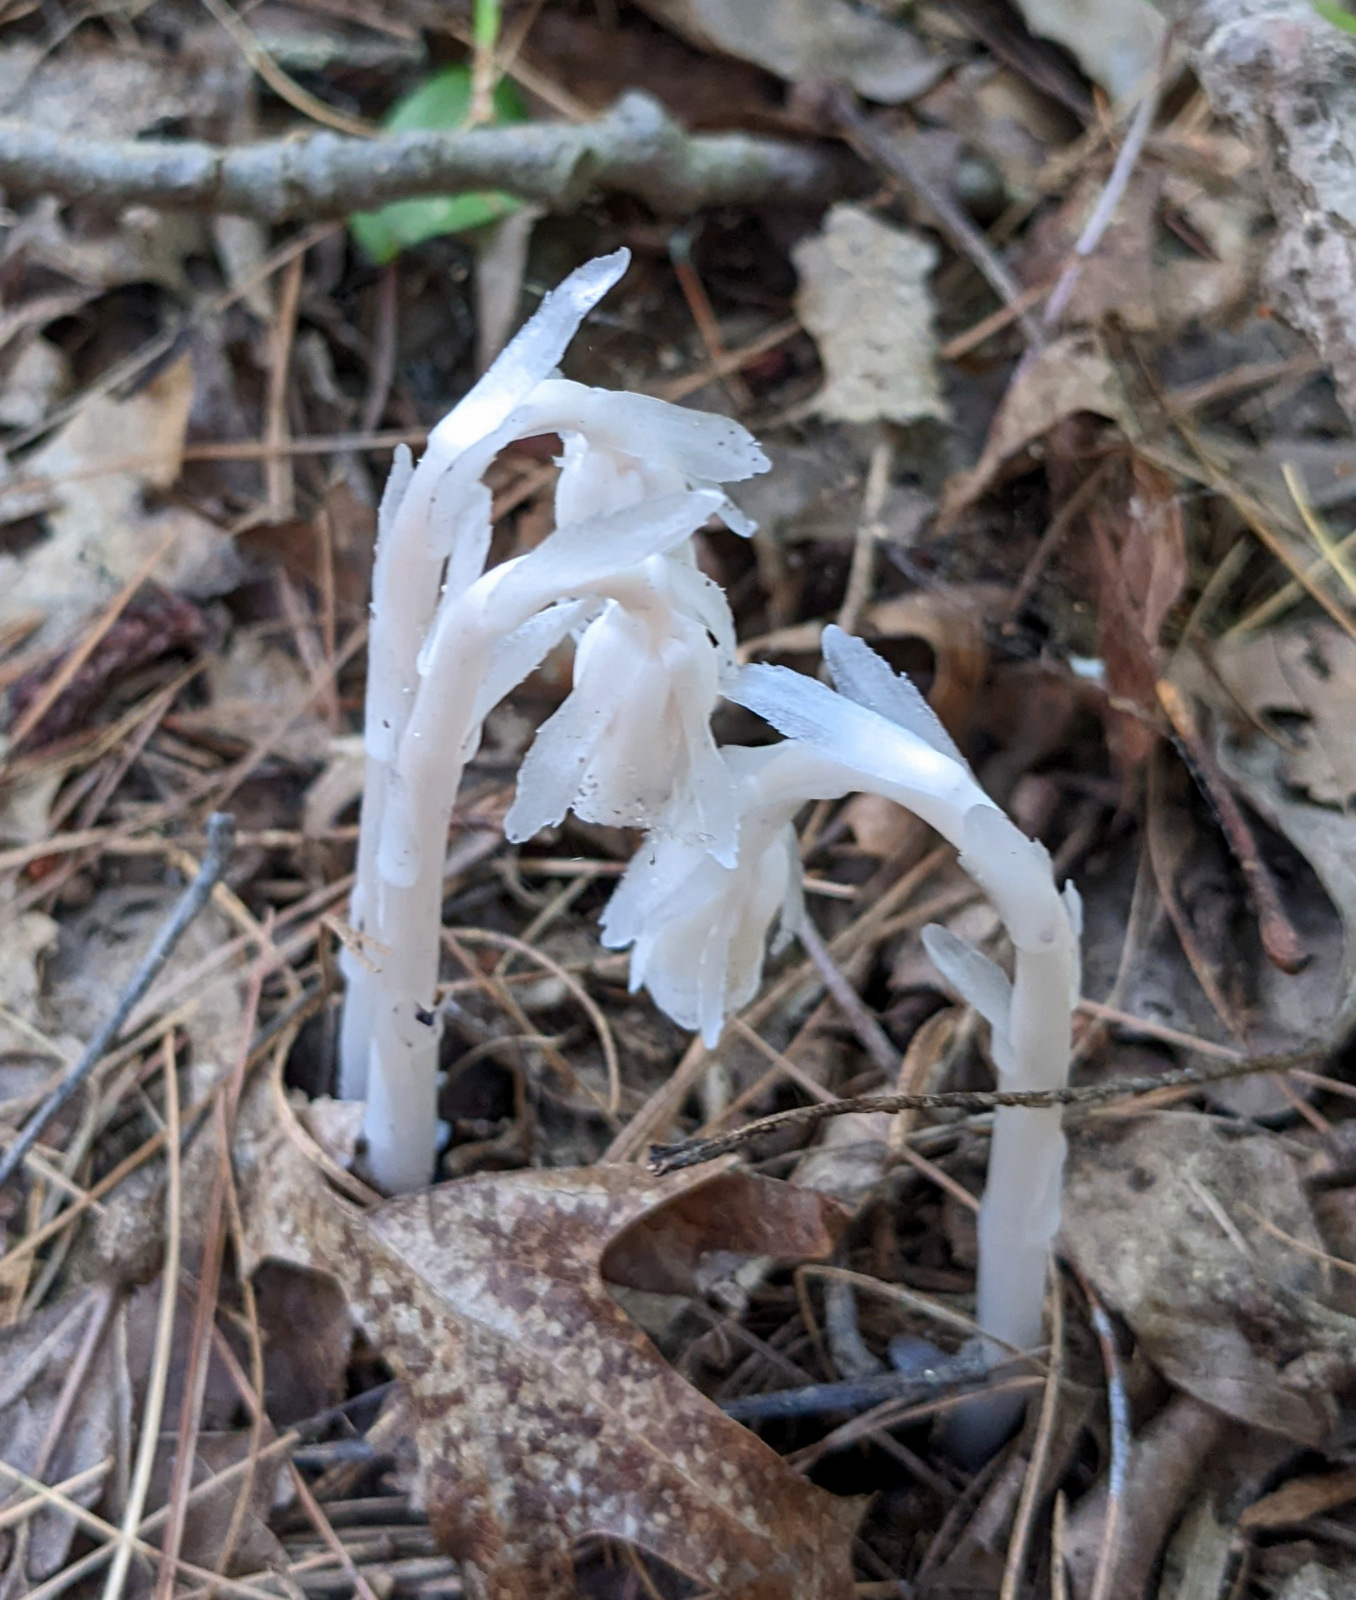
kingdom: Plantae
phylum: Tracheophyta
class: Magnoliopsida
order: Ericales
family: Ericaceae
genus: Monotropa
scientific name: Monotropa uniflora
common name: Convulsion root
